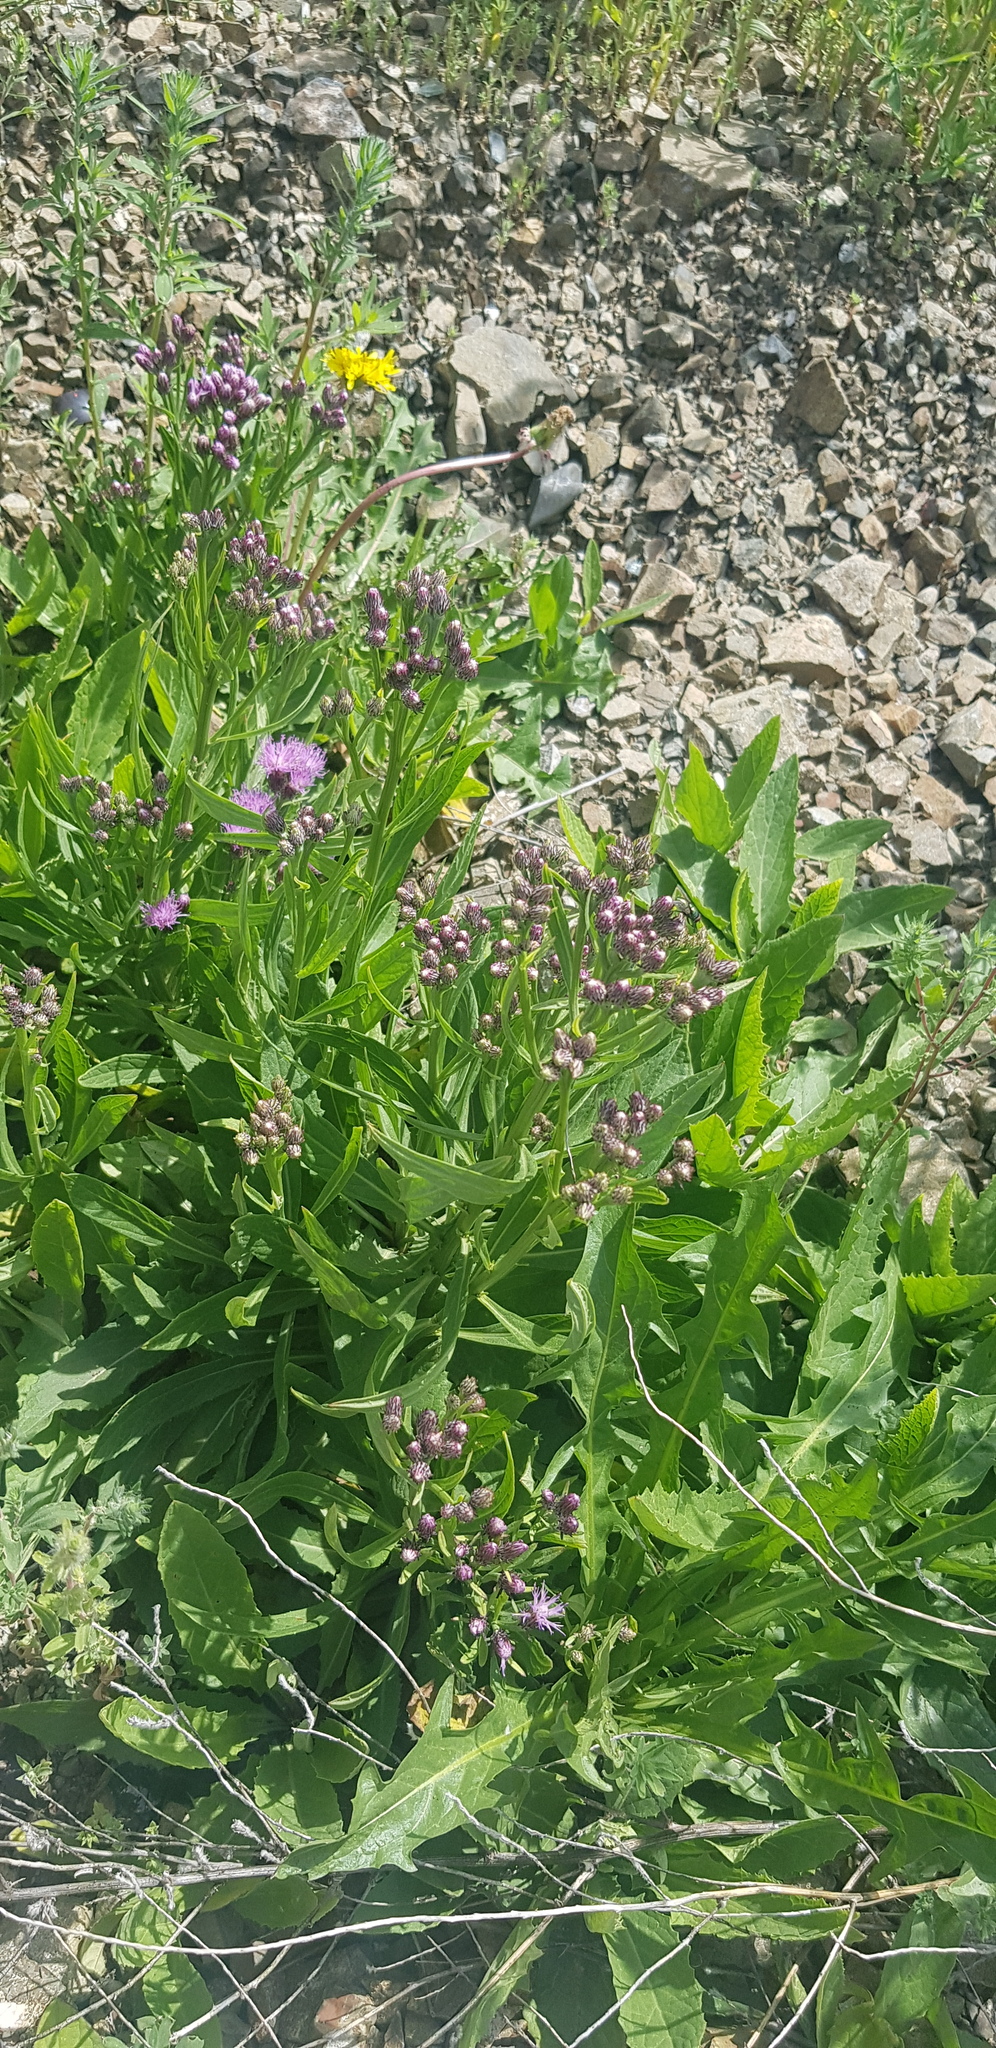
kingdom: Plantae
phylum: Tracheophyta
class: Magnoliopsida
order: Asterales
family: Asteraceae
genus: Saussurea
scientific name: Saussurea salicifolia
